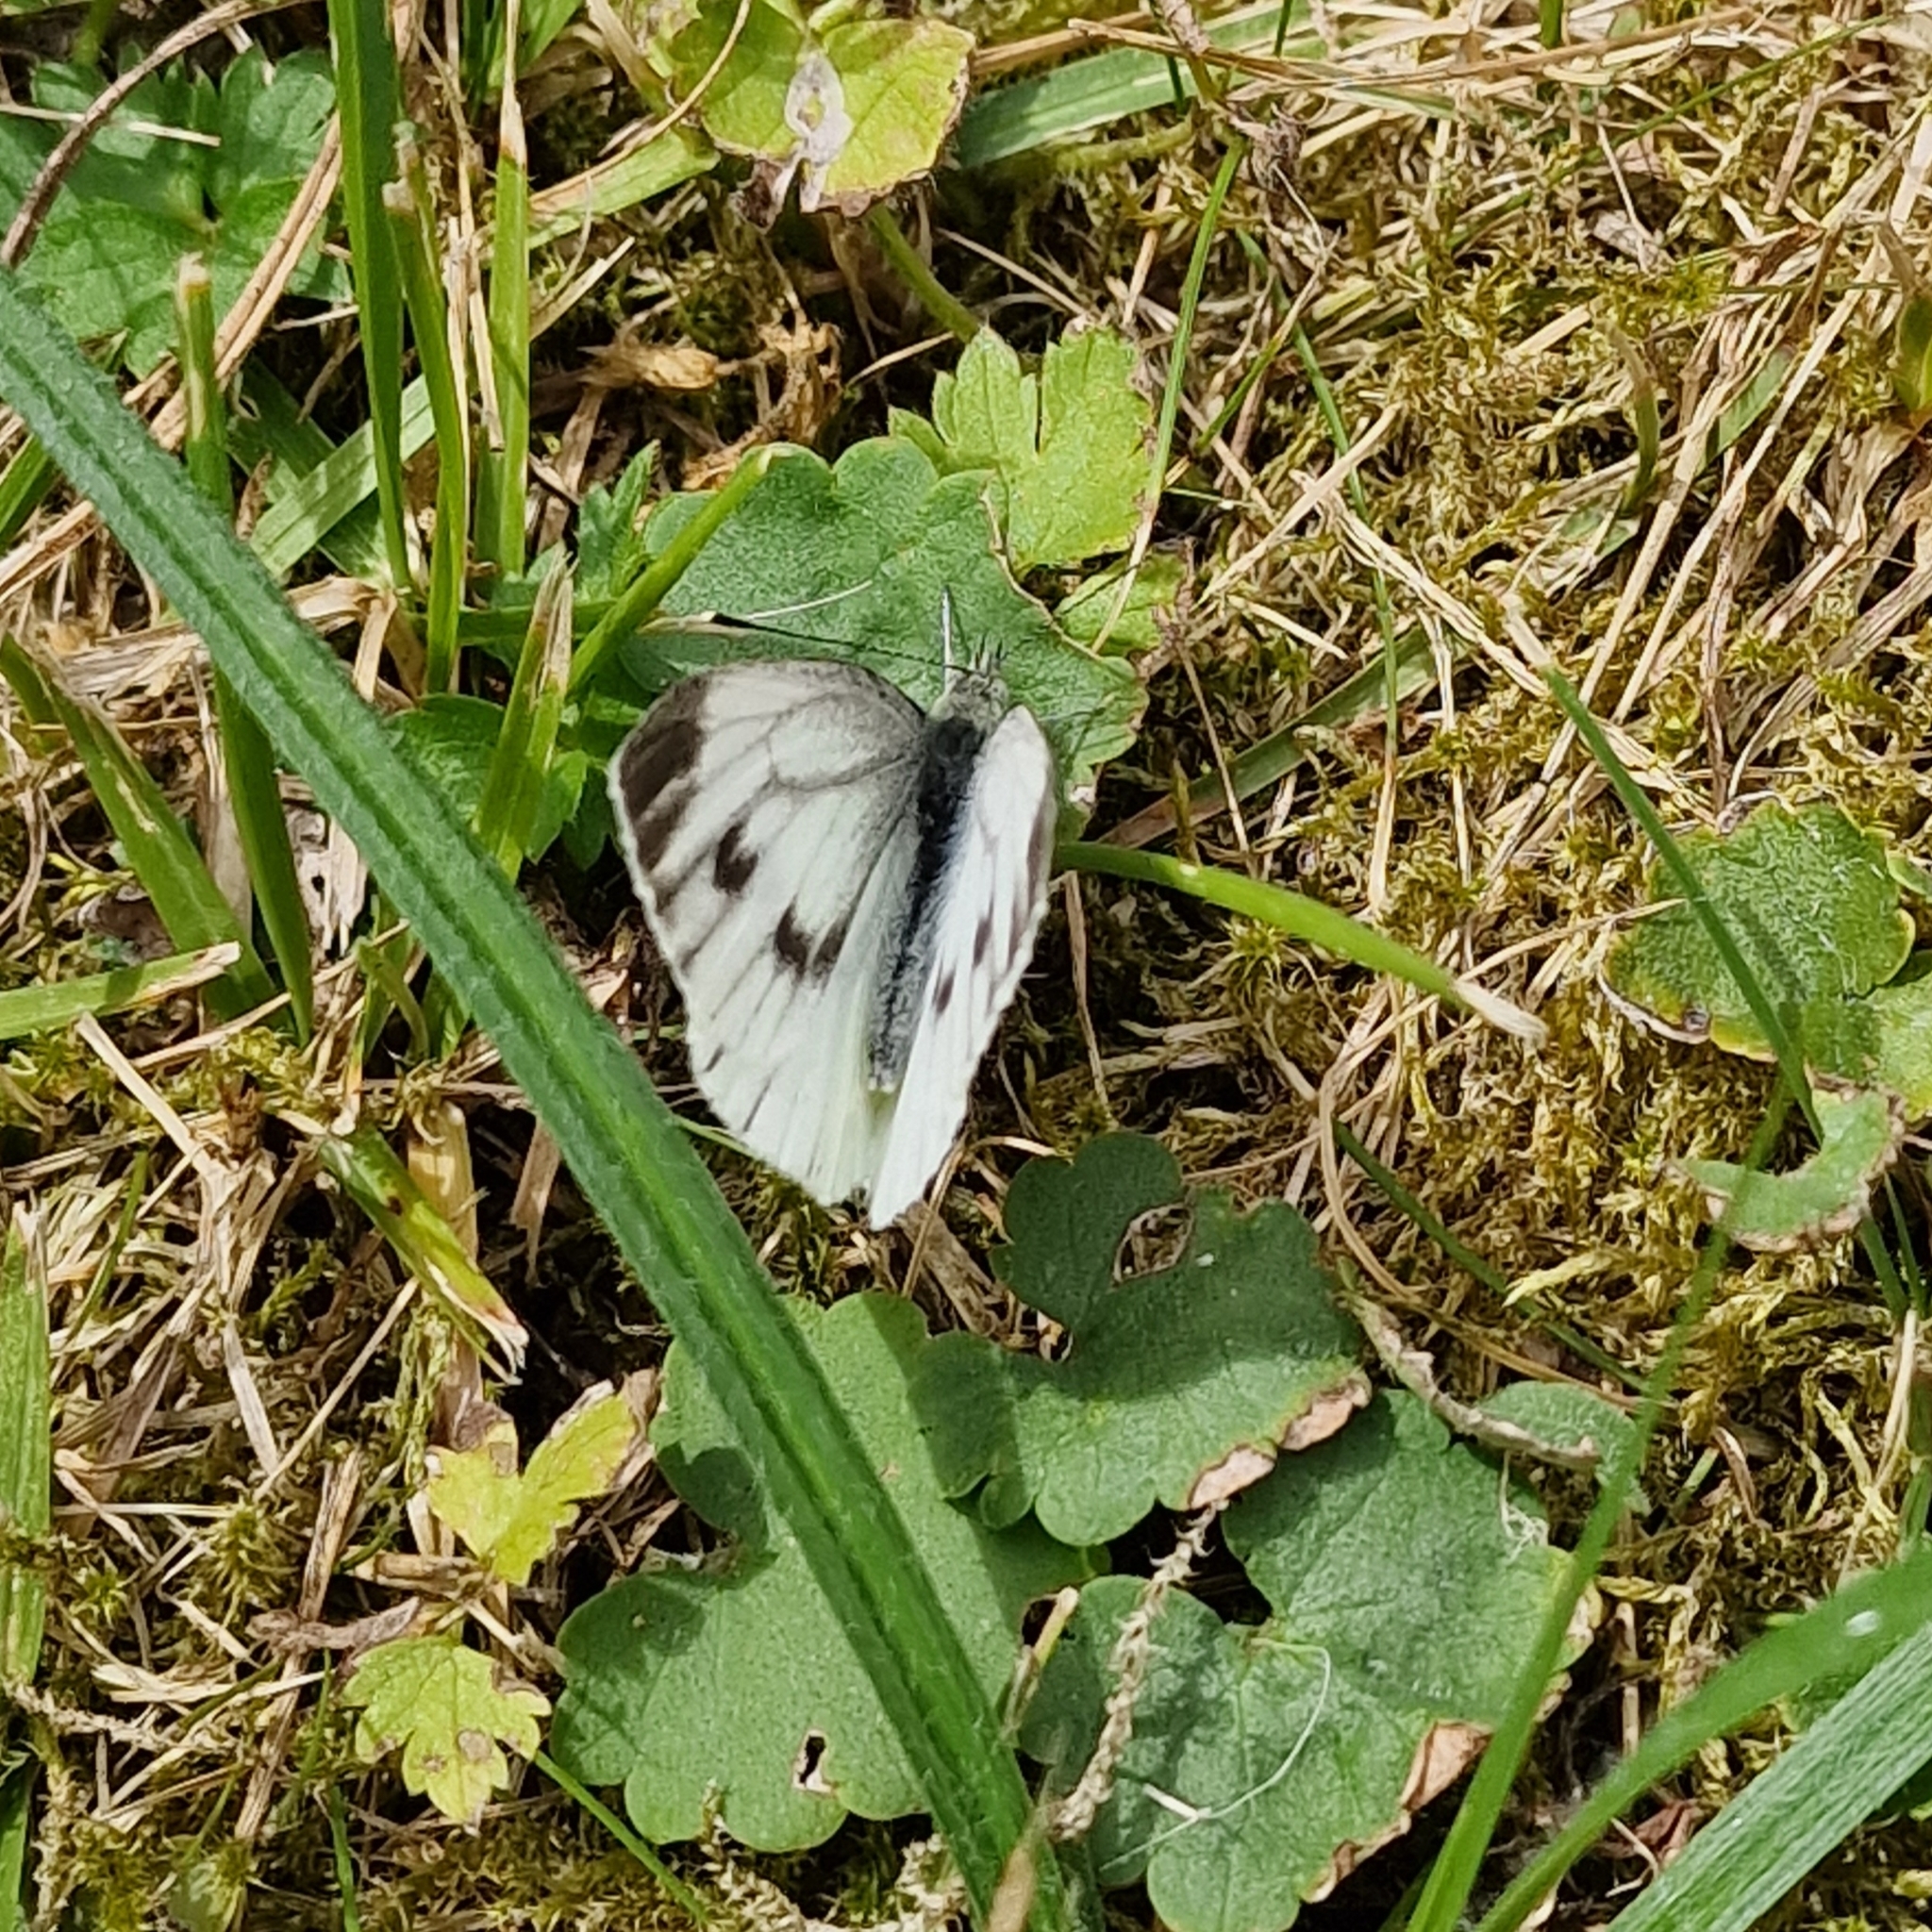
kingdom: Animalia
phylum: Arthropoda
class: Insecta
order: Lepidoptera
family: Pieridae
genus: Pieris
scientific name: Pieris napi
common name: Green-veined white
